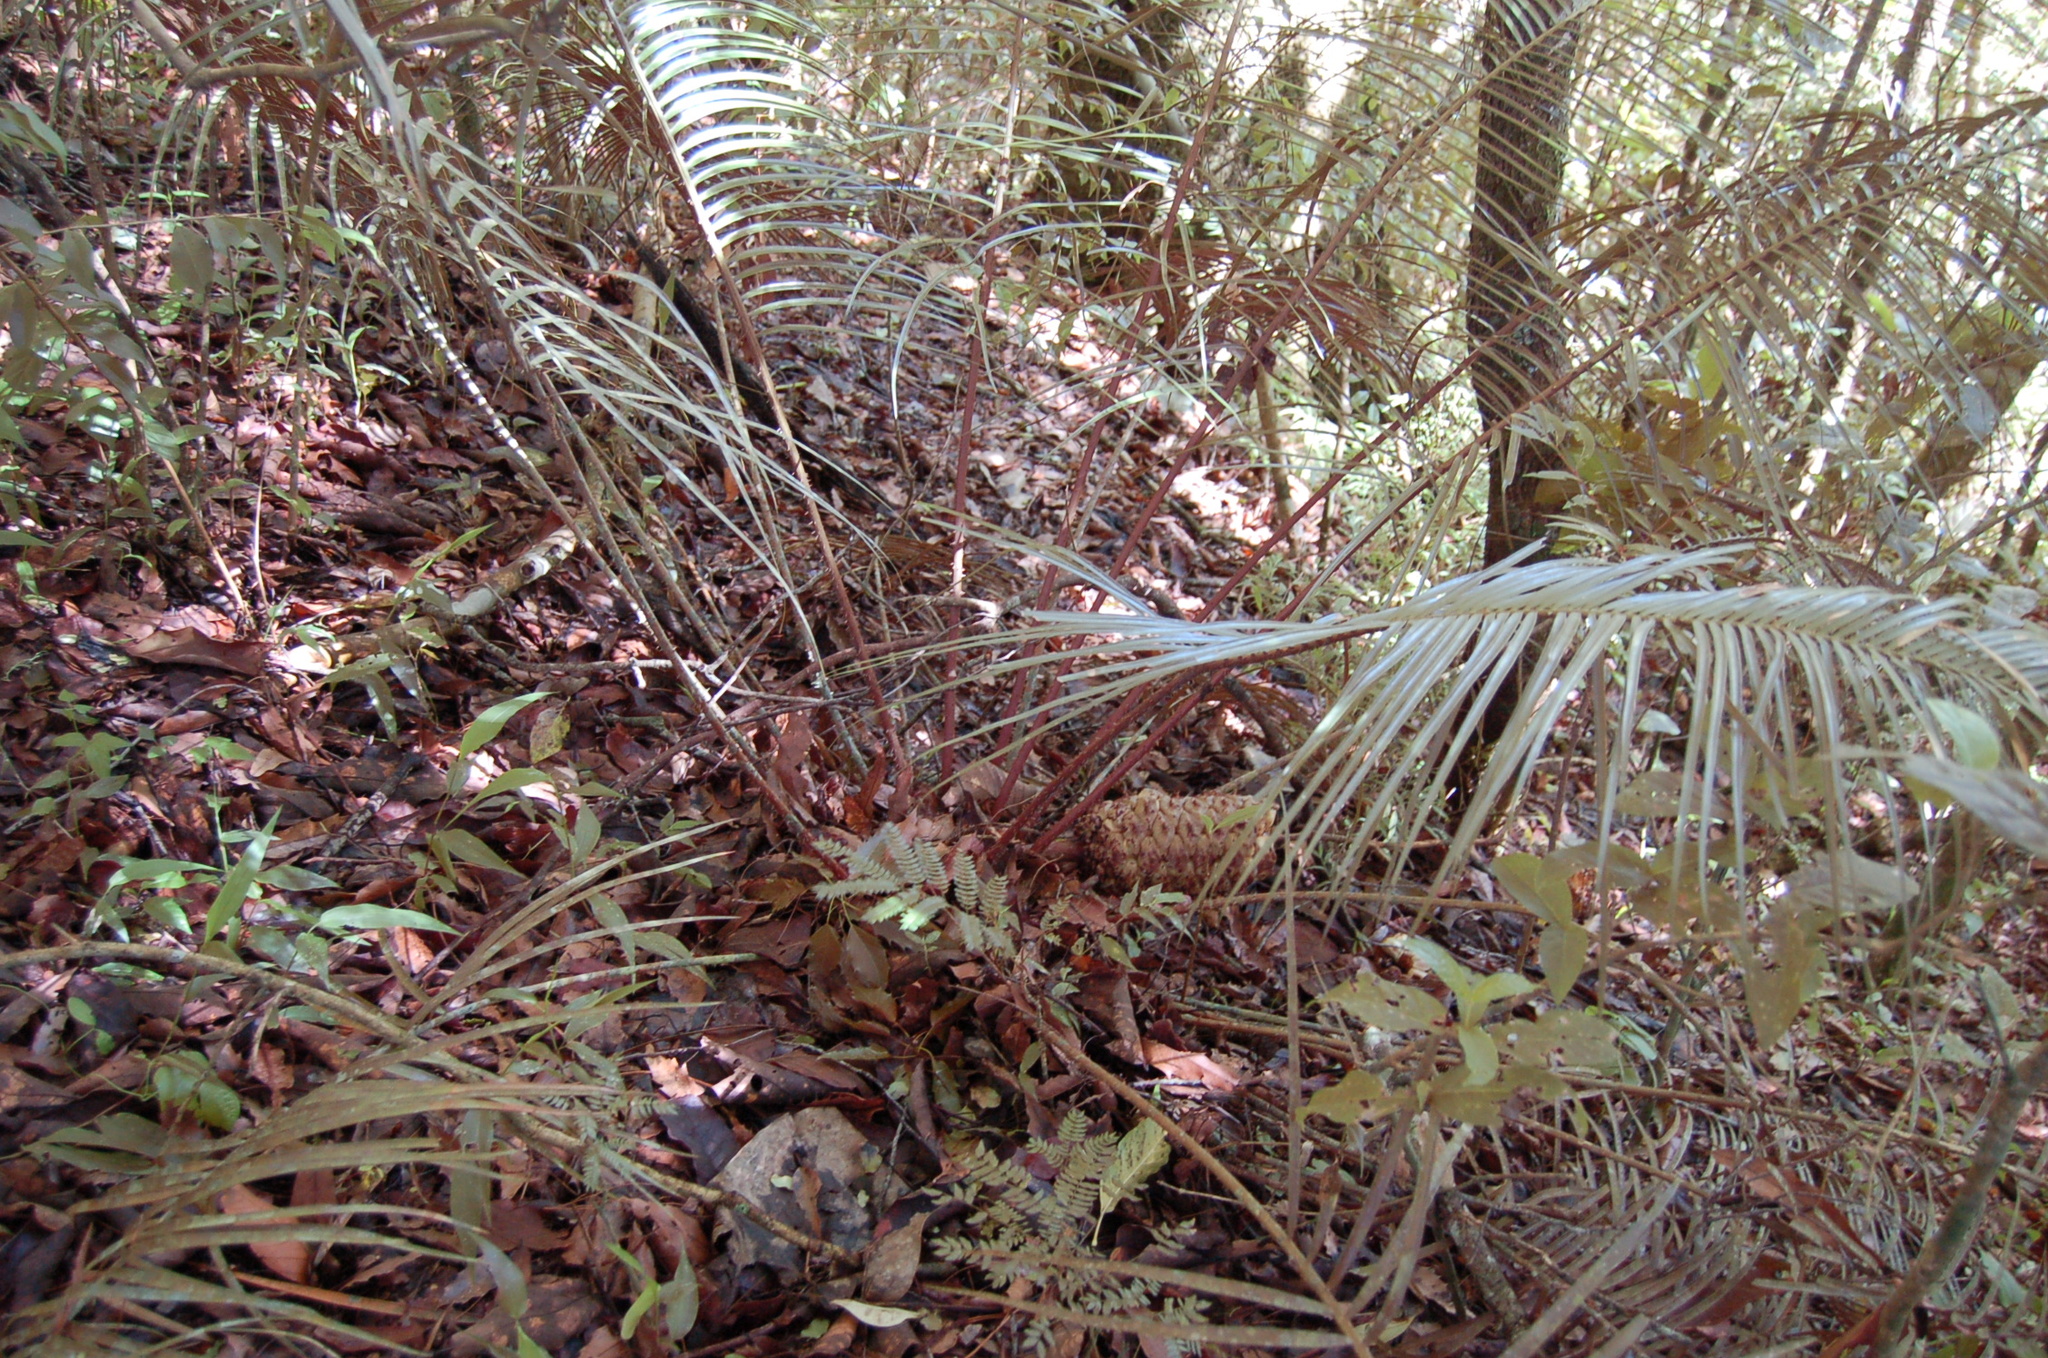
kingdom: Plantae
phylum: Tracheophyta
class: Cycadopsida
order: Cycadales
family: Zamiaceae
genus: Ceratozamia
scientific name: Ceratozamia matudae
